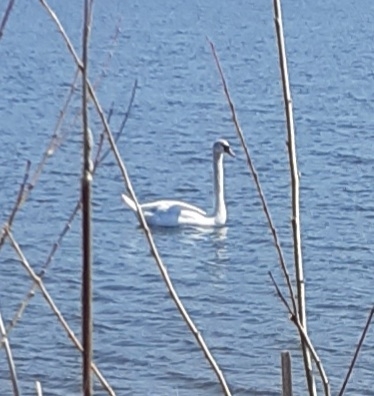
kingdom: Animalia
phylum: Chordata
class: Aves
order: Anseriformes
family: Anatidae
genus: Cygnus
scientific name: Cygnus olor
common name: Mute swan
